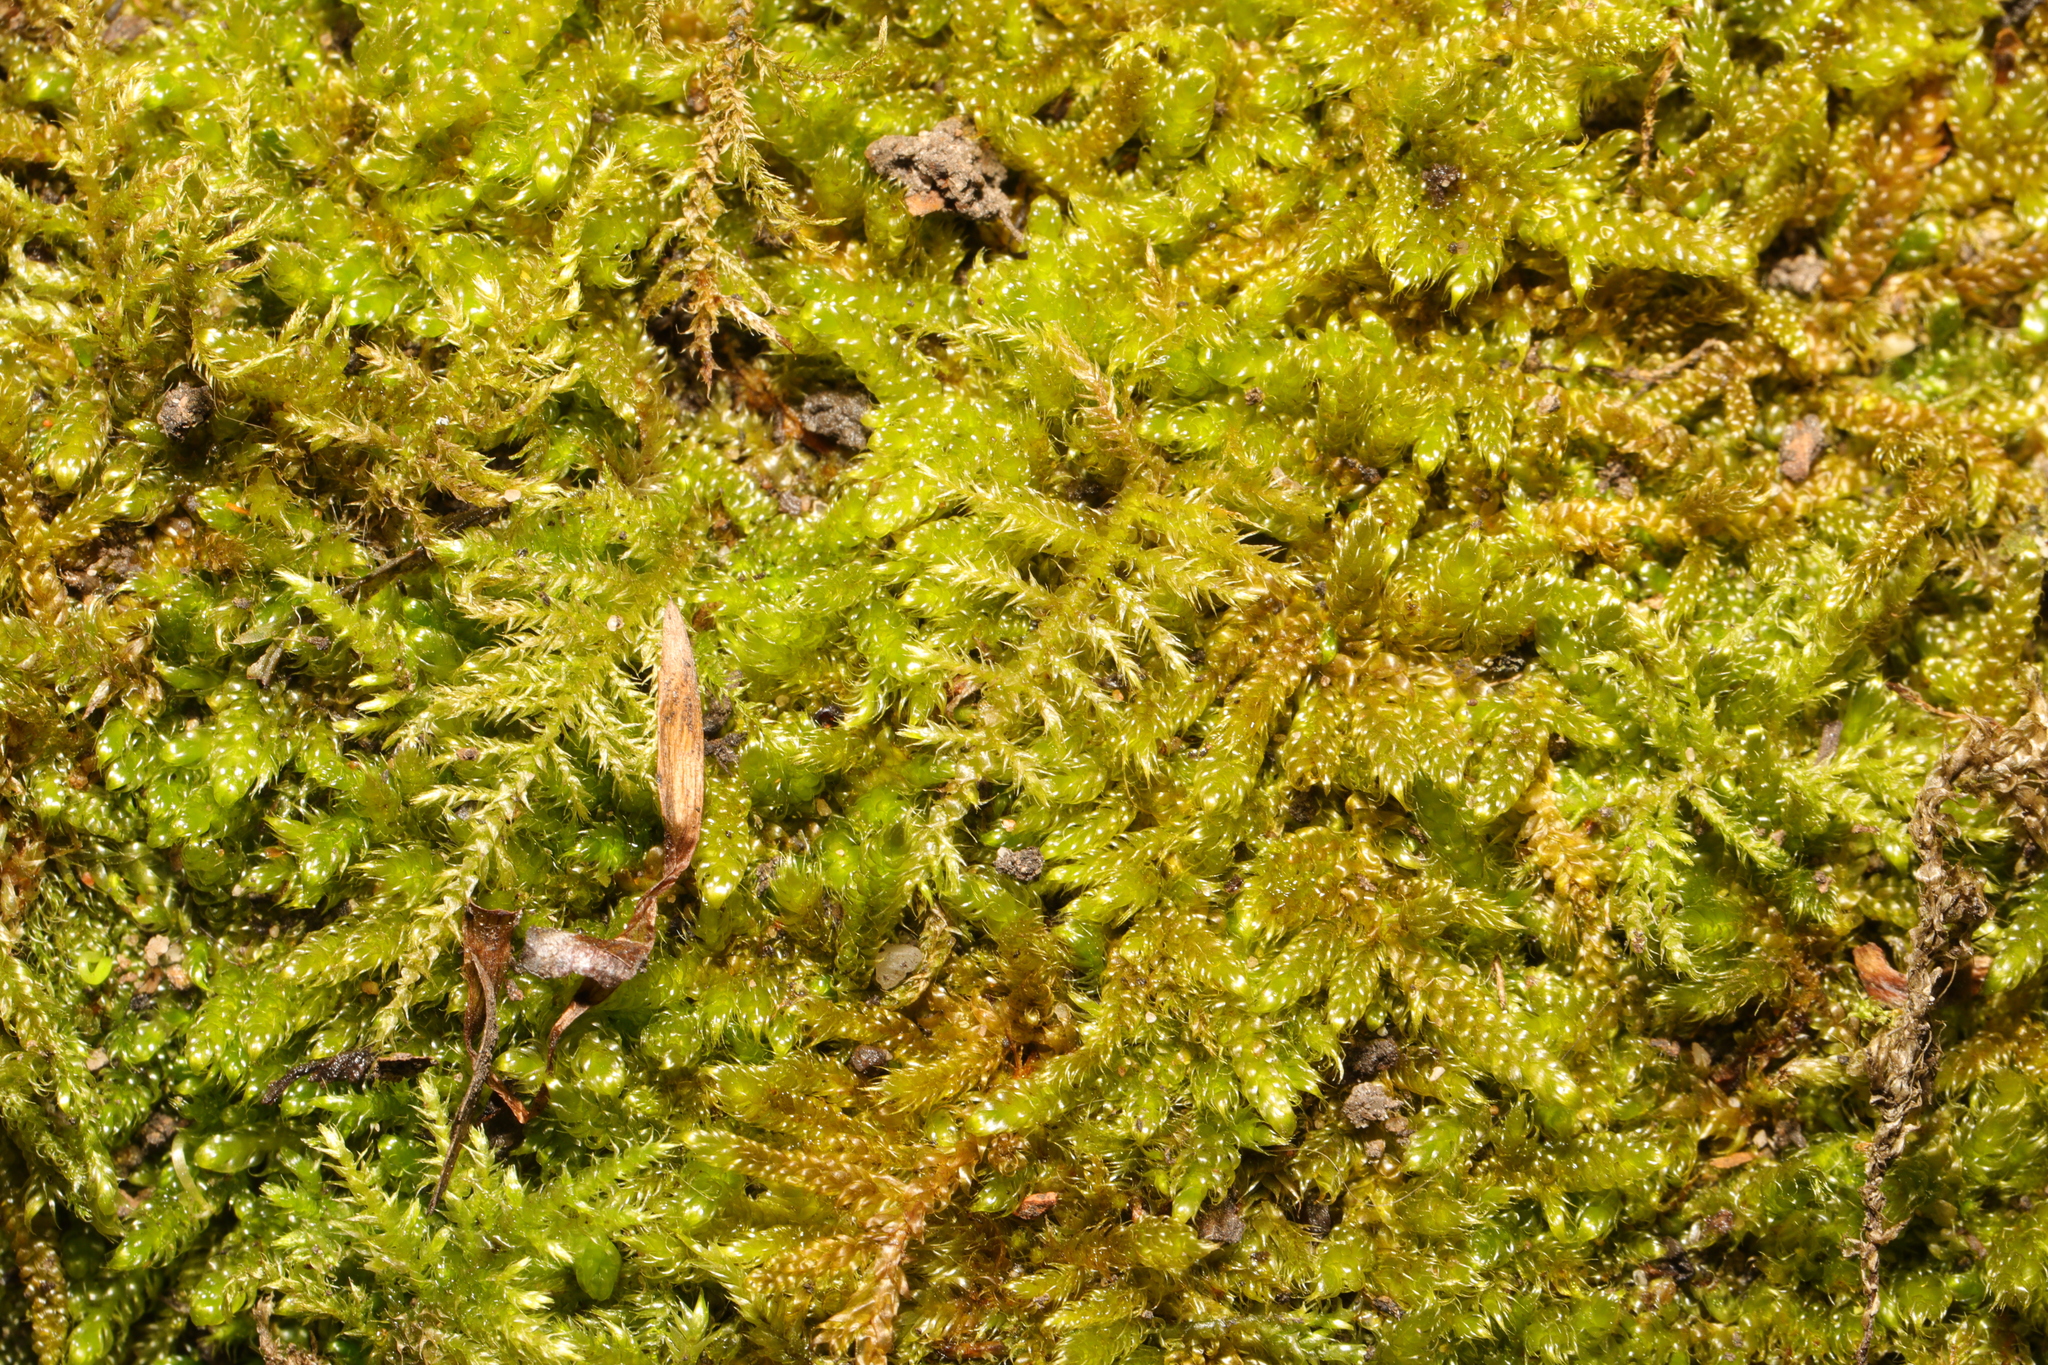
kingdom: Plantae
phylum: Bryophyta
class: Bryopsida
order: Hypnales
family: Brachytheciaceae
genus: Kindbergia
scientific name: Kindbergia praelonga
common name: Slender beaked moss
